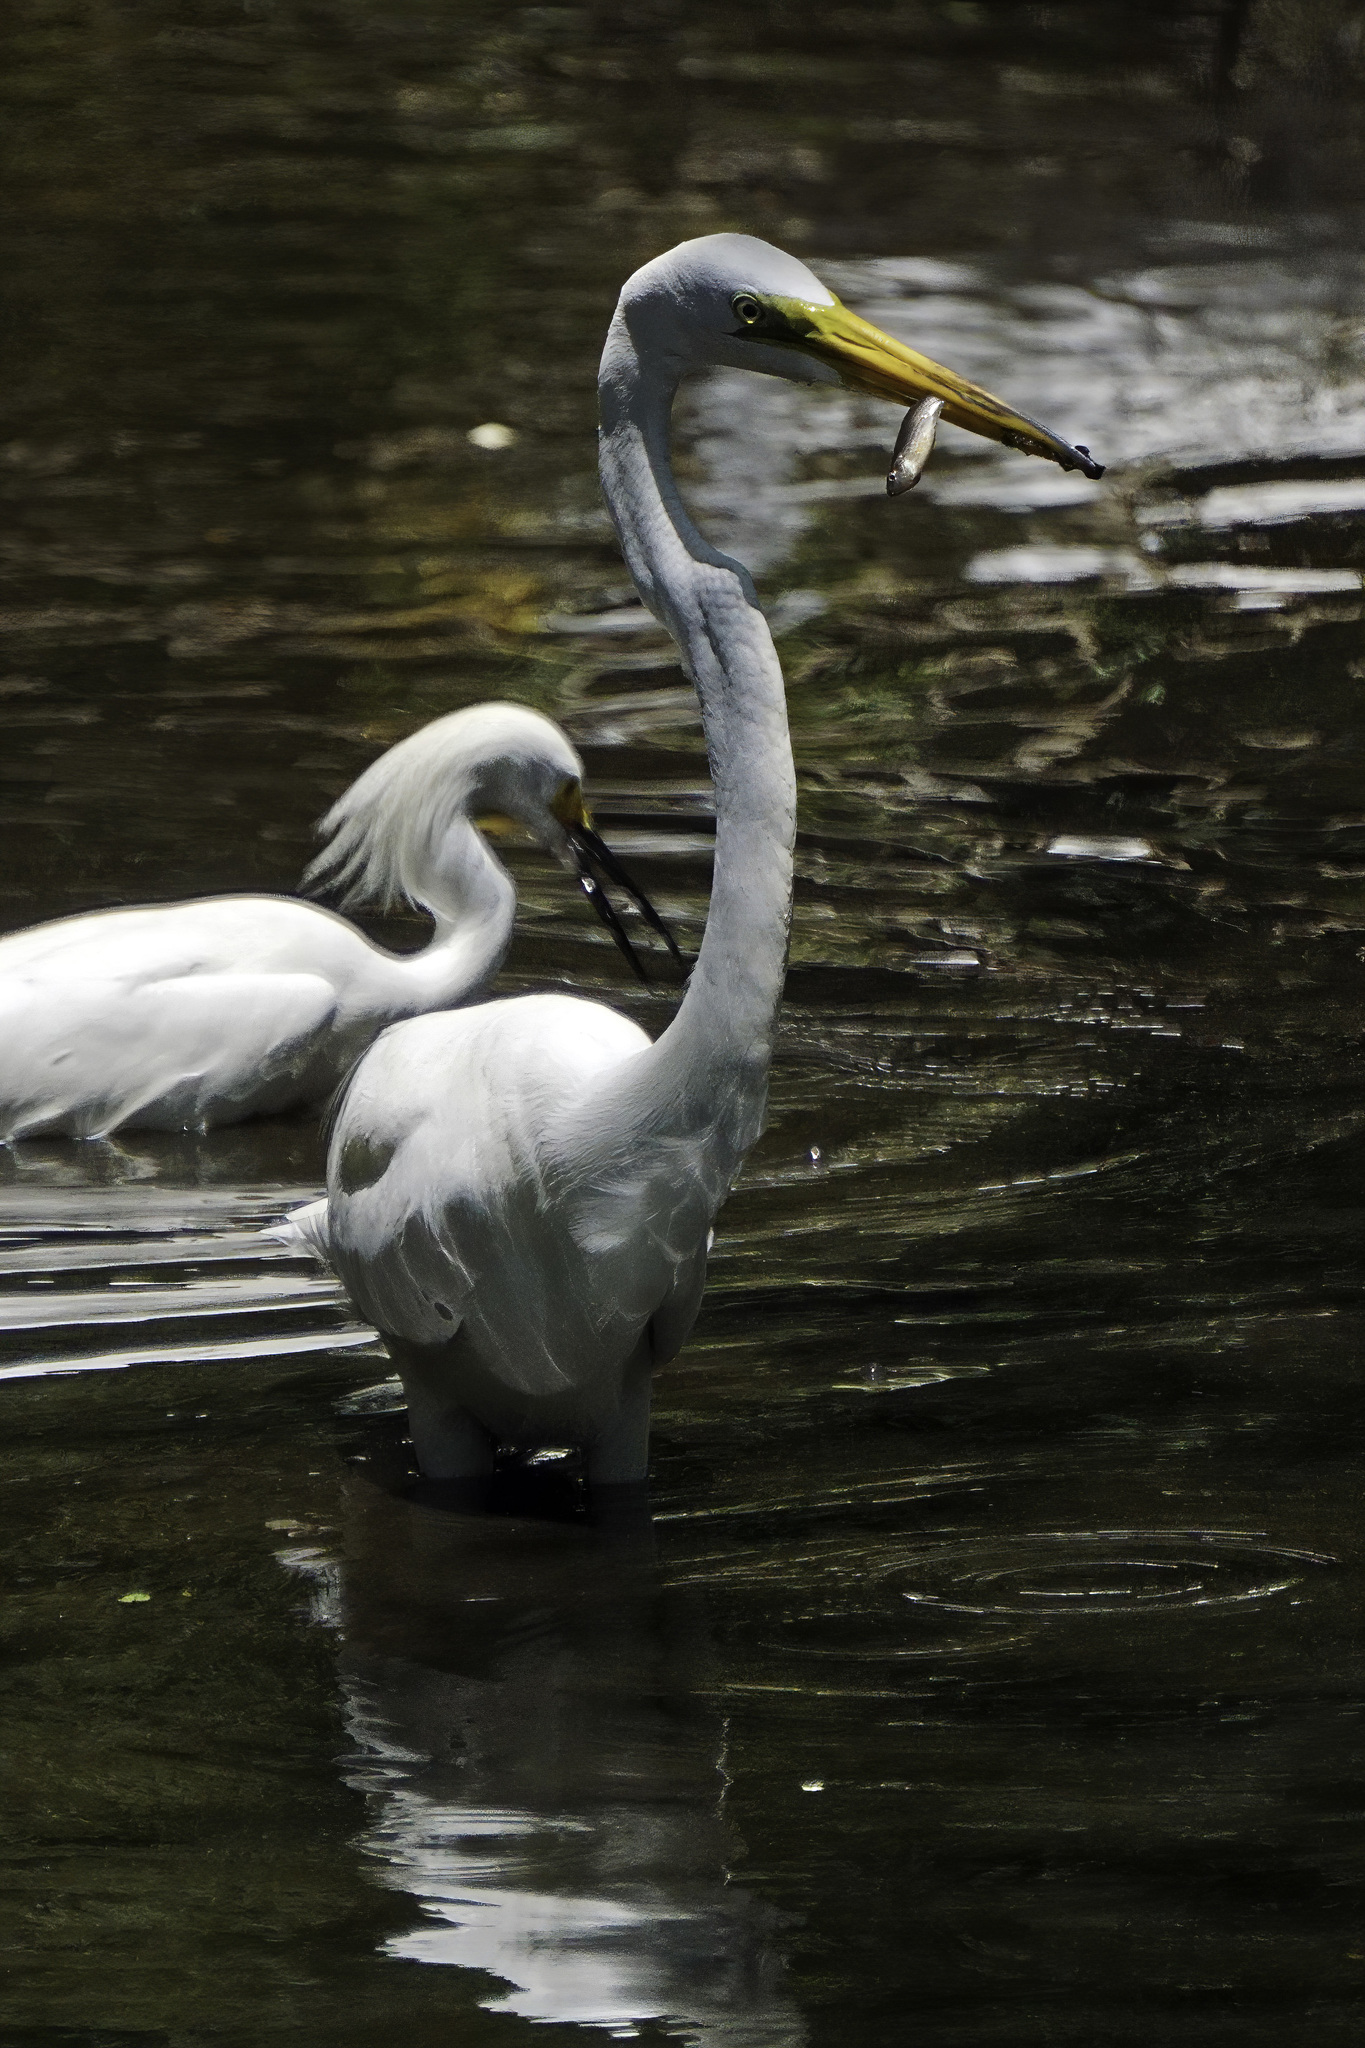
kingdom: Animalia
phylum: Chordata
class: Aves
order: Pelecaniformes
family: Ardeidae
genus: Ardea
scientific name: Ardea alba
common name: Great egret
